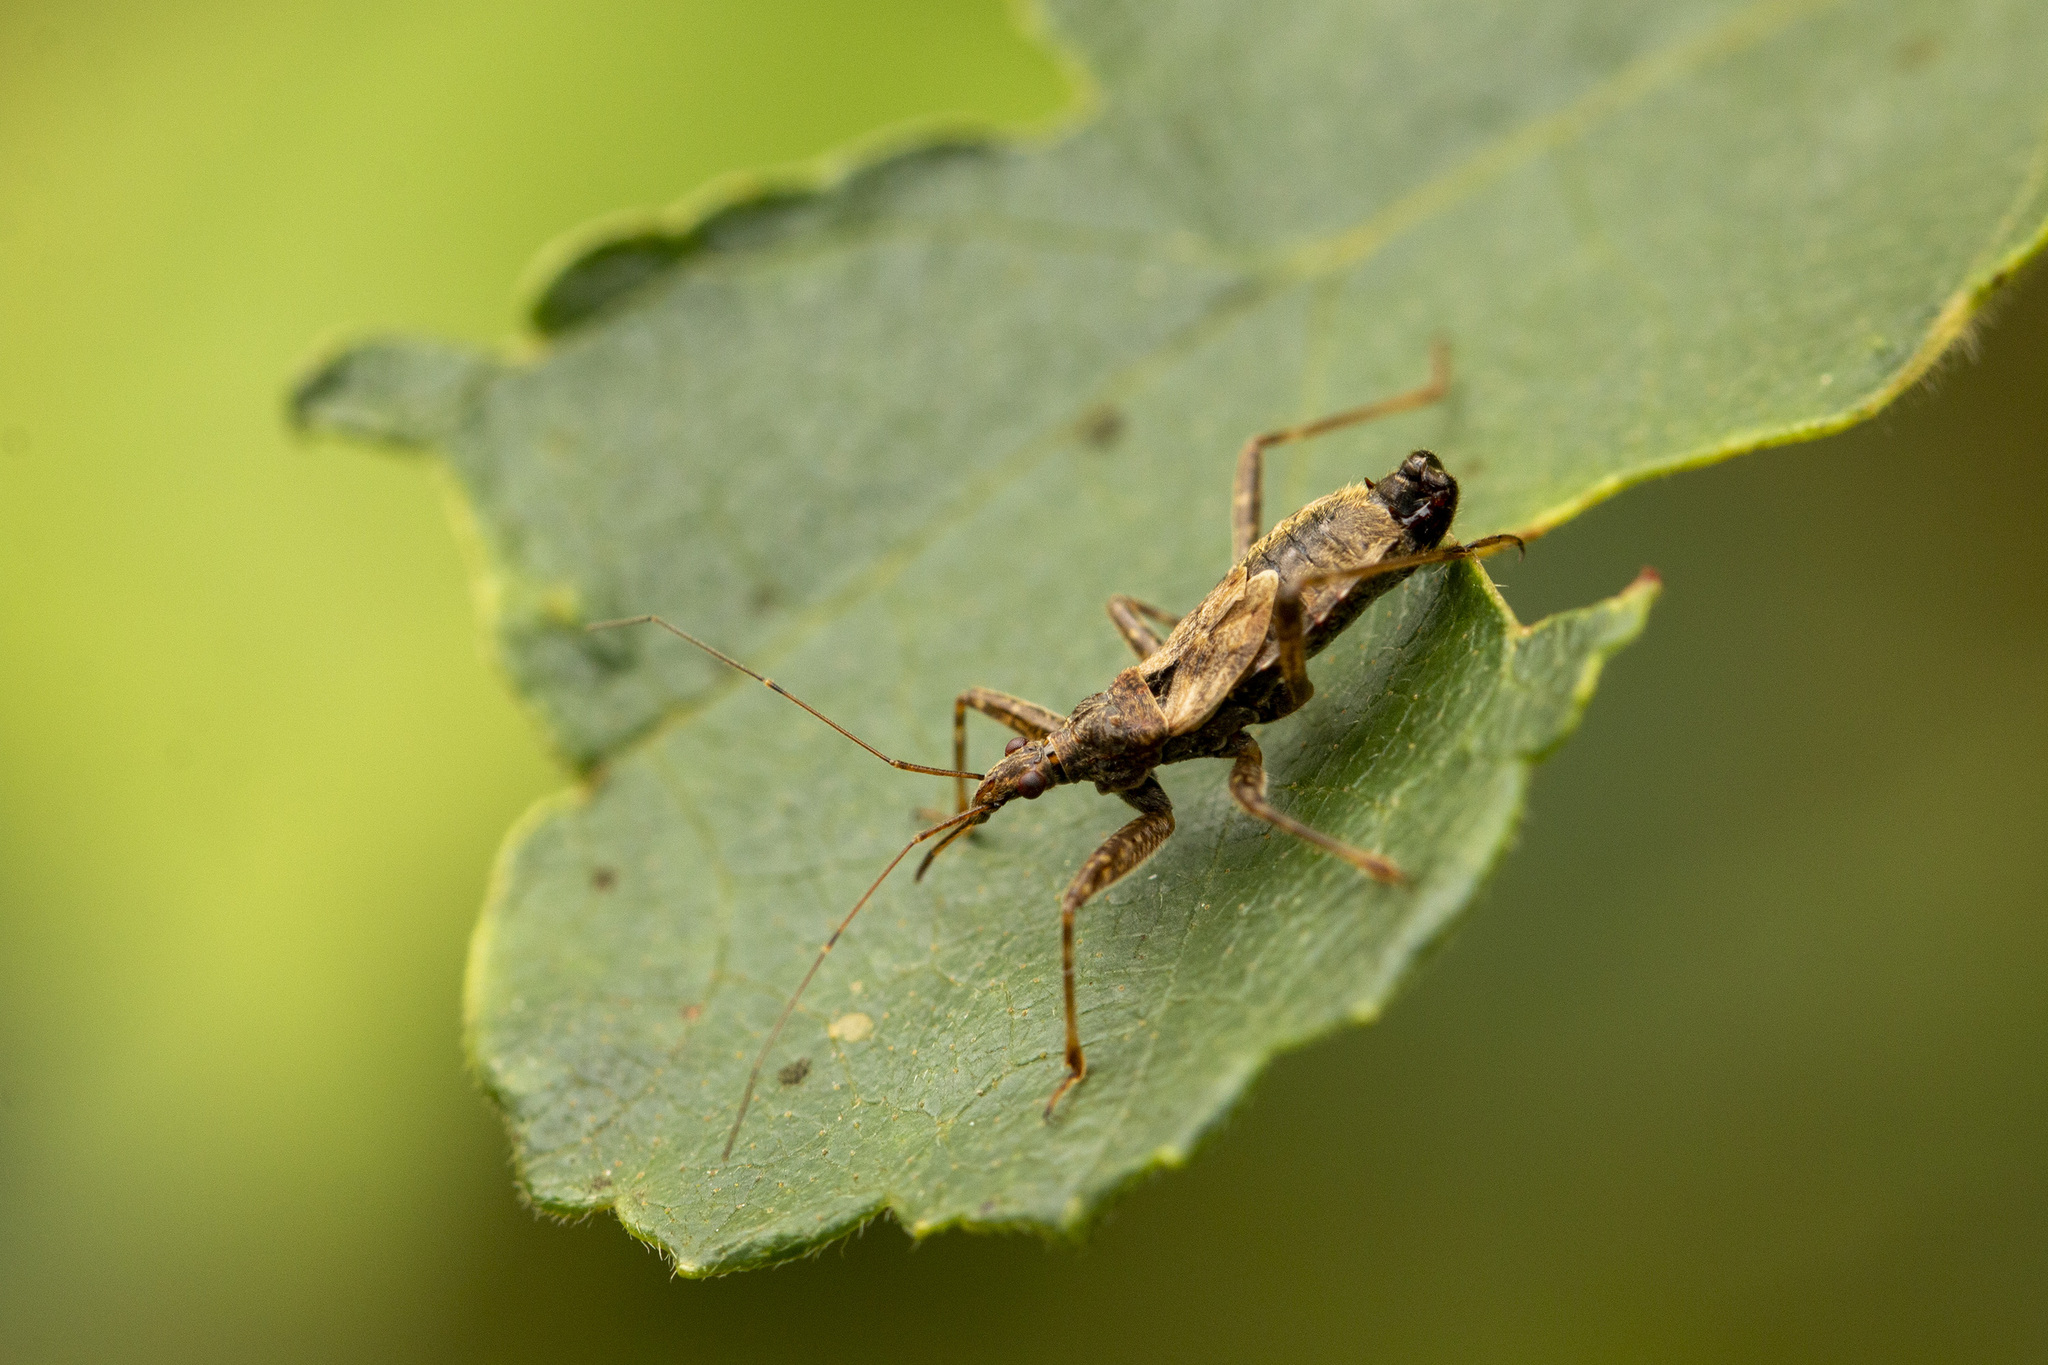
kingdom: Animalia
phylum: Arthropoda
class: Insecta
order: Hemiptera
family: Nabidae
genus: Himacerus
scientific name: Himacerus apterus
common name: Tree damsel bug
